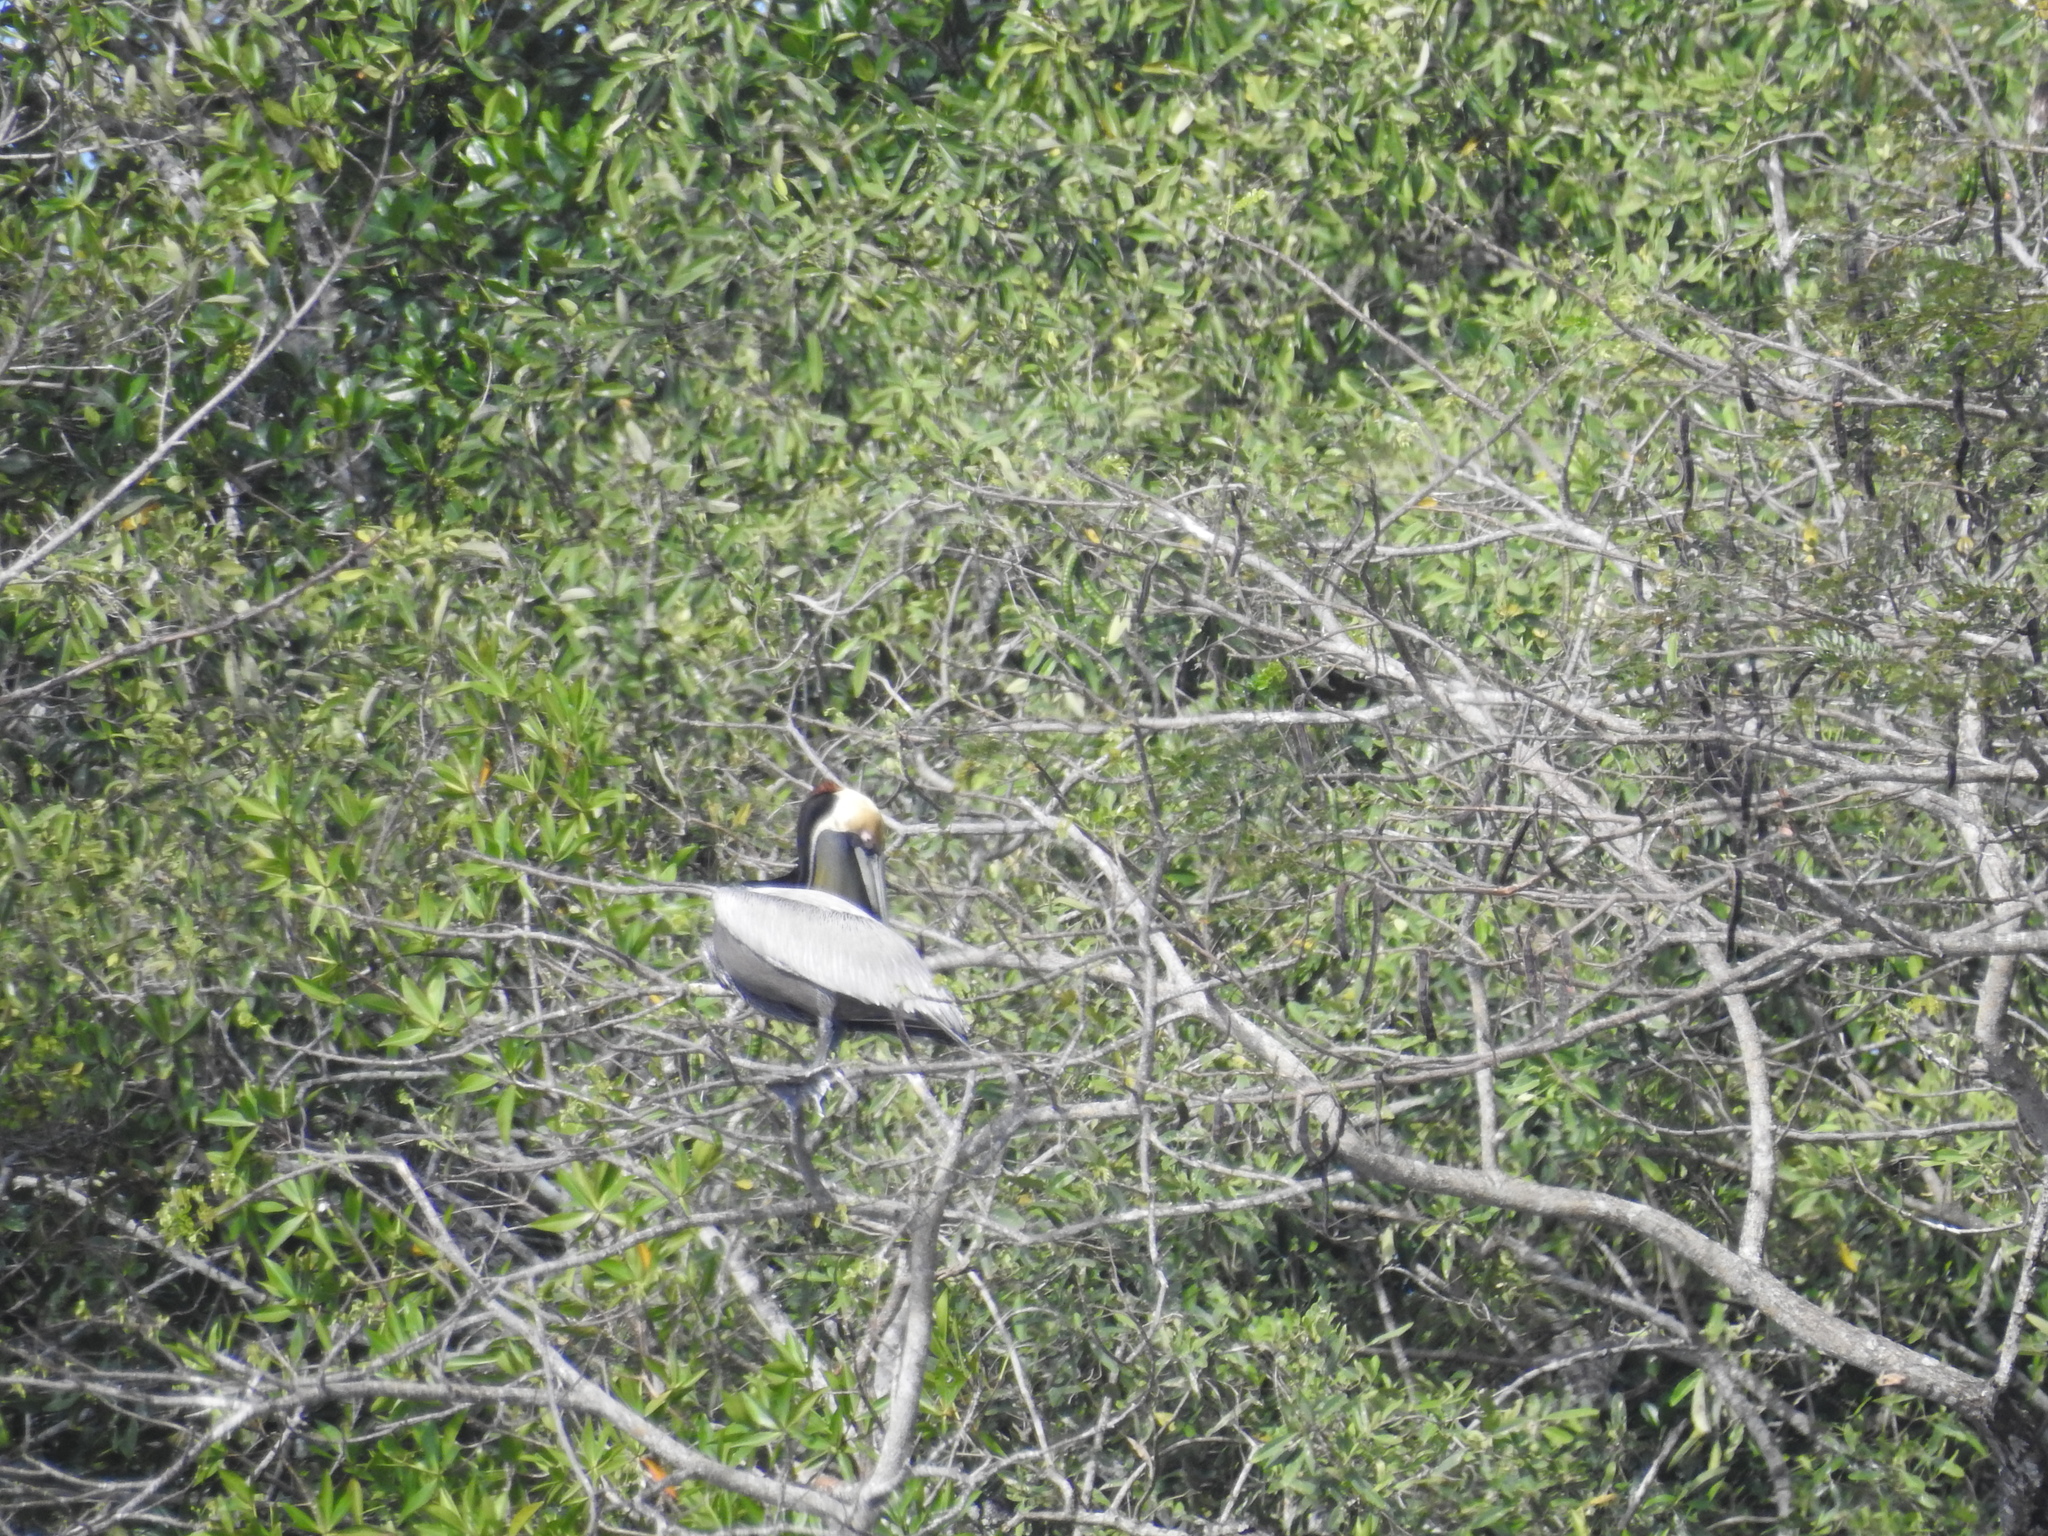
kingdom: Animalia
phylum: Chordata
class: Aves
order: Pelecaniformes
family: Pelecanidae
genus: Pelecanus
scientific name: Pelecanus occidentalis
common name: Brown pelican
